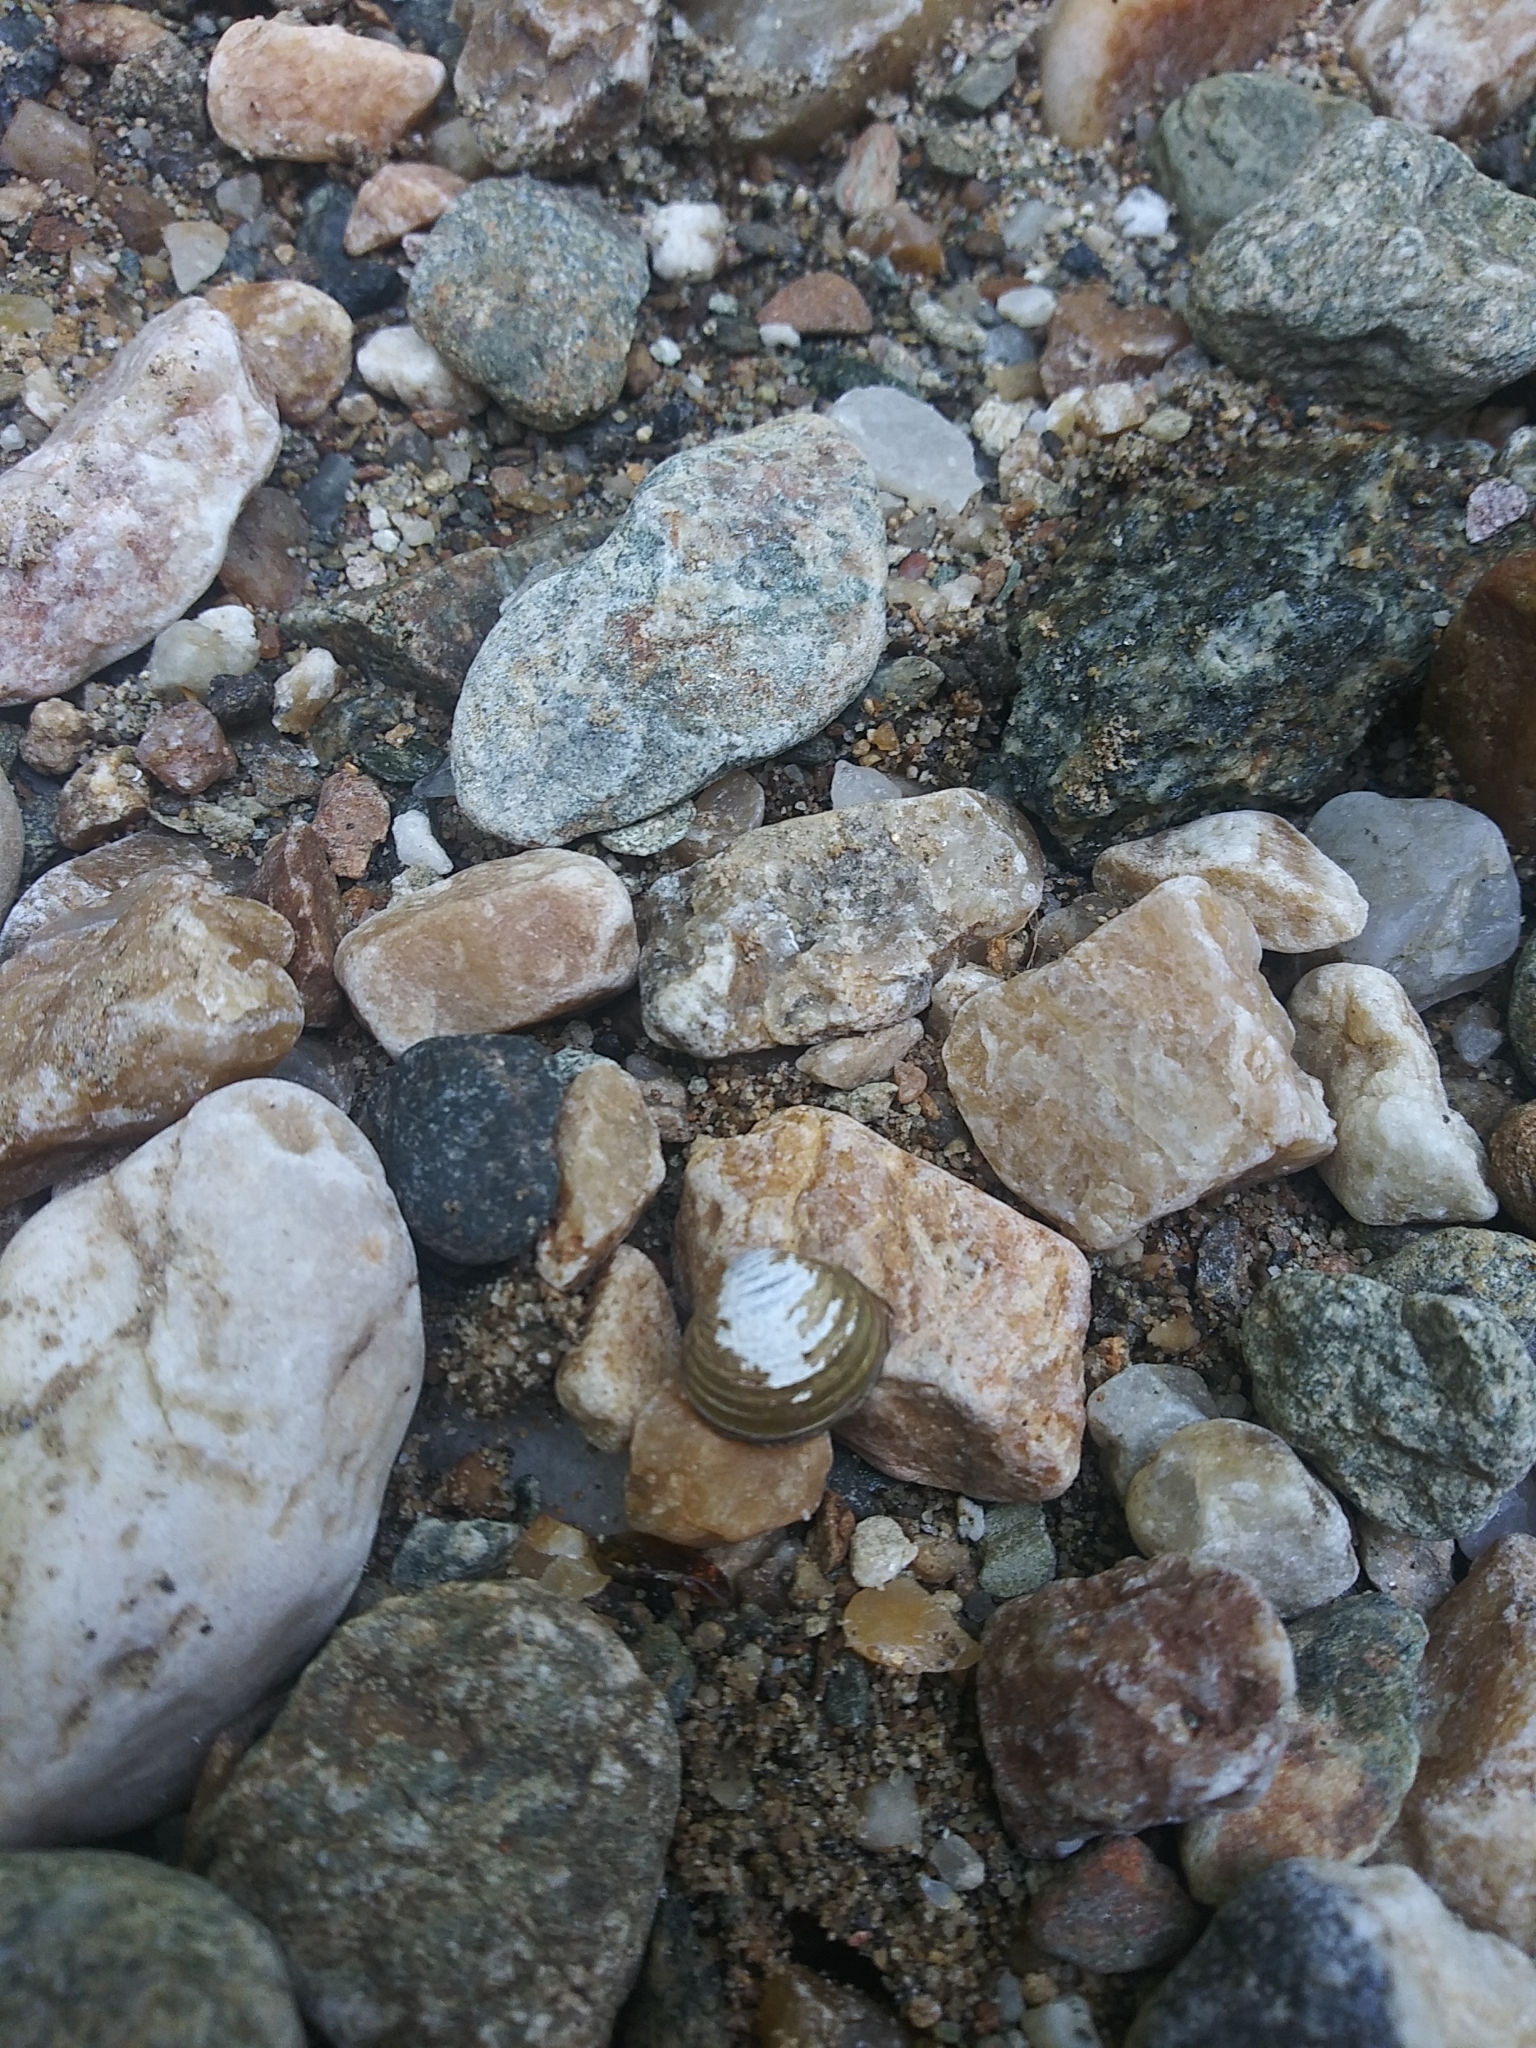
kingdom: Animalia
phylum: Mollusca
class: Bivalvia
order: Venerida
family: Cyrenidae
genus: Corbicula
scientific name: Corbicula fluminea
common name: Asian clam
